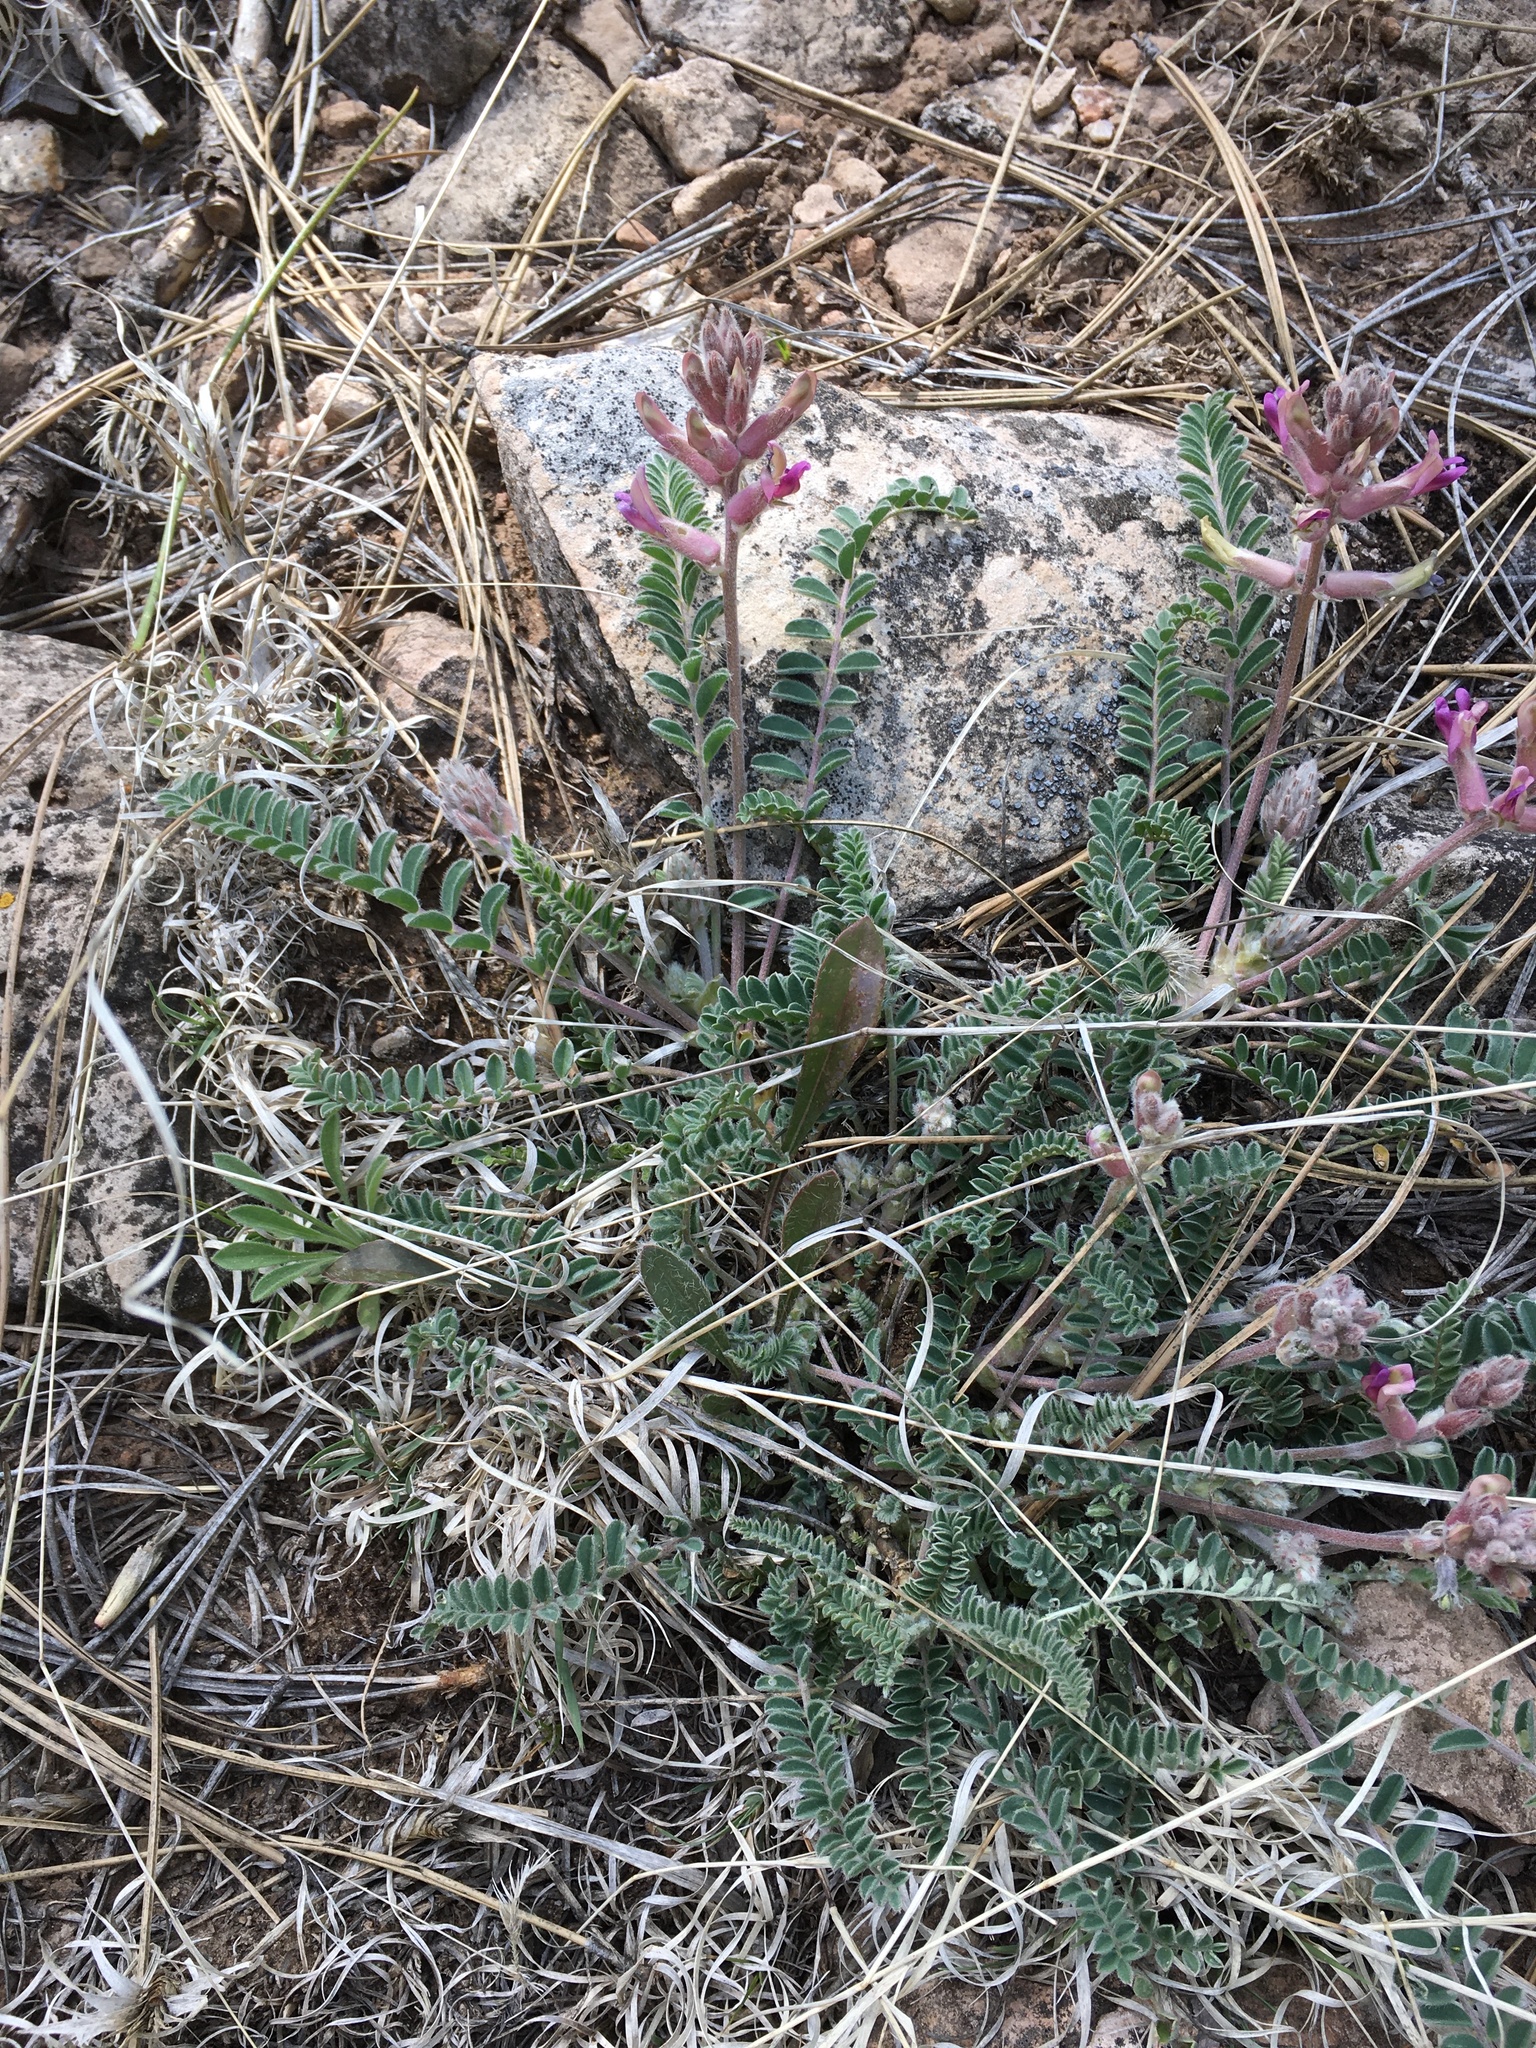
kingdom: Plantae
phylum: Tracheophyta
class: Magnoliopsida
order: Fabales
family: Fabaceae
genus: Astragalus
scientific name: Astragalus tephrodes
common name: Ashen milk-vetch
